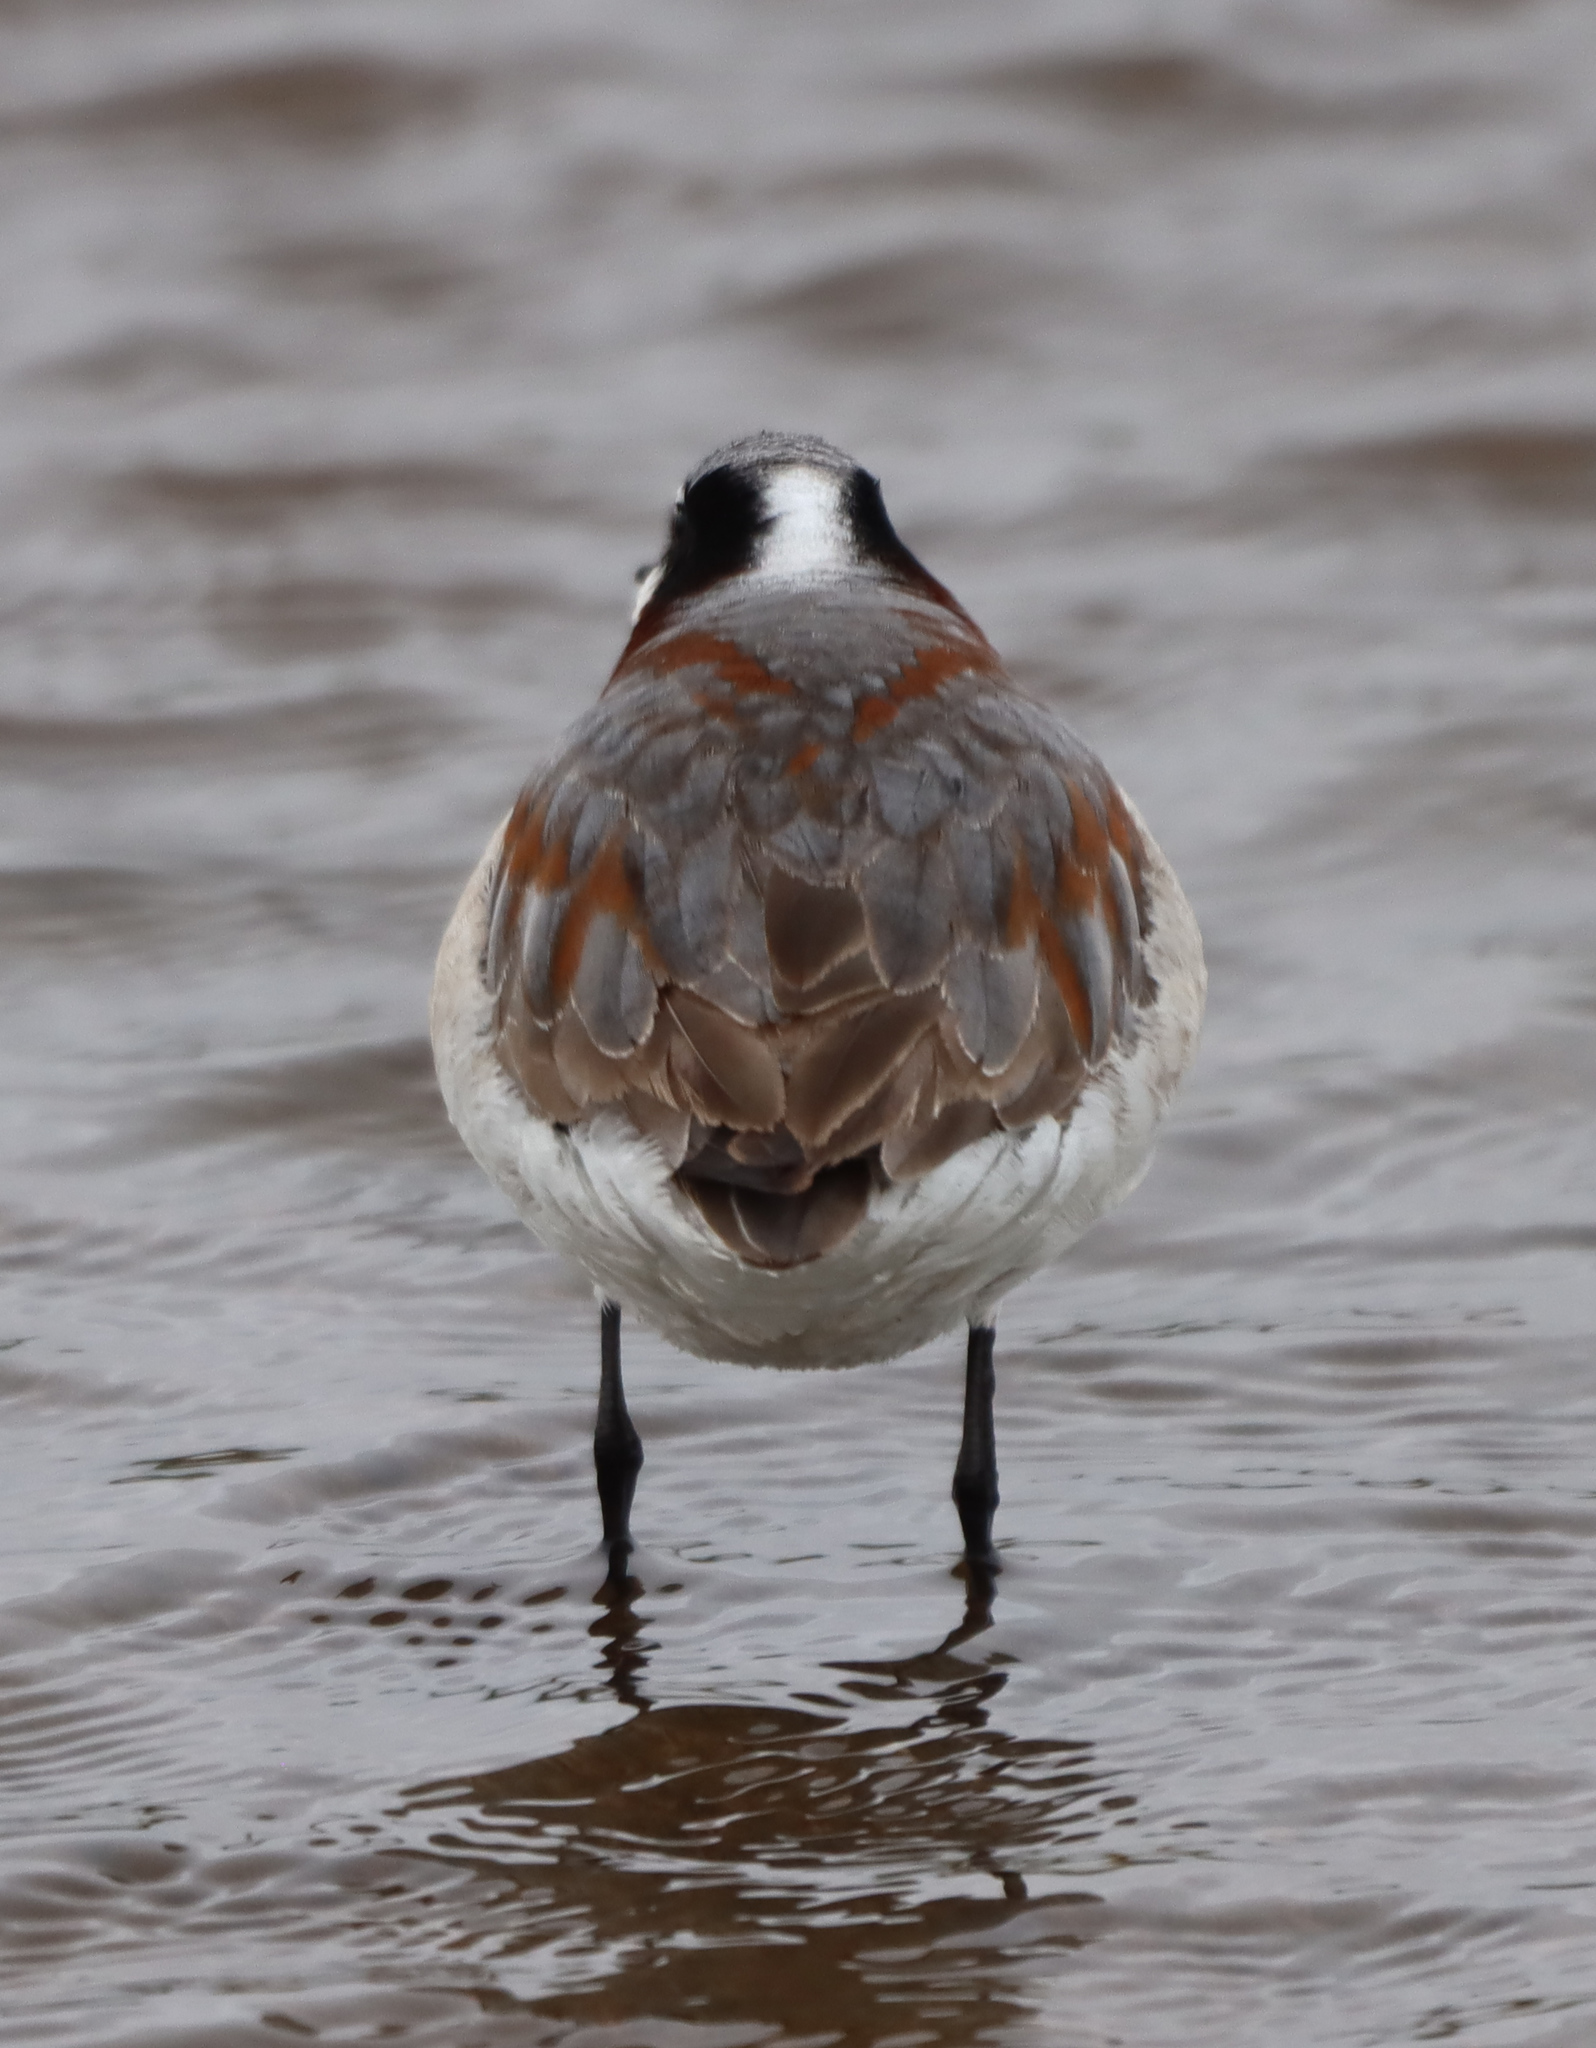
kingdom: Animalia
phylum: Chordata
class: Aves
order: Charadriiformes
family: Scolopacidae
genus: Phalaropus
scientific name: Phalaropus tricolor
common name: Wilson's phalarope
